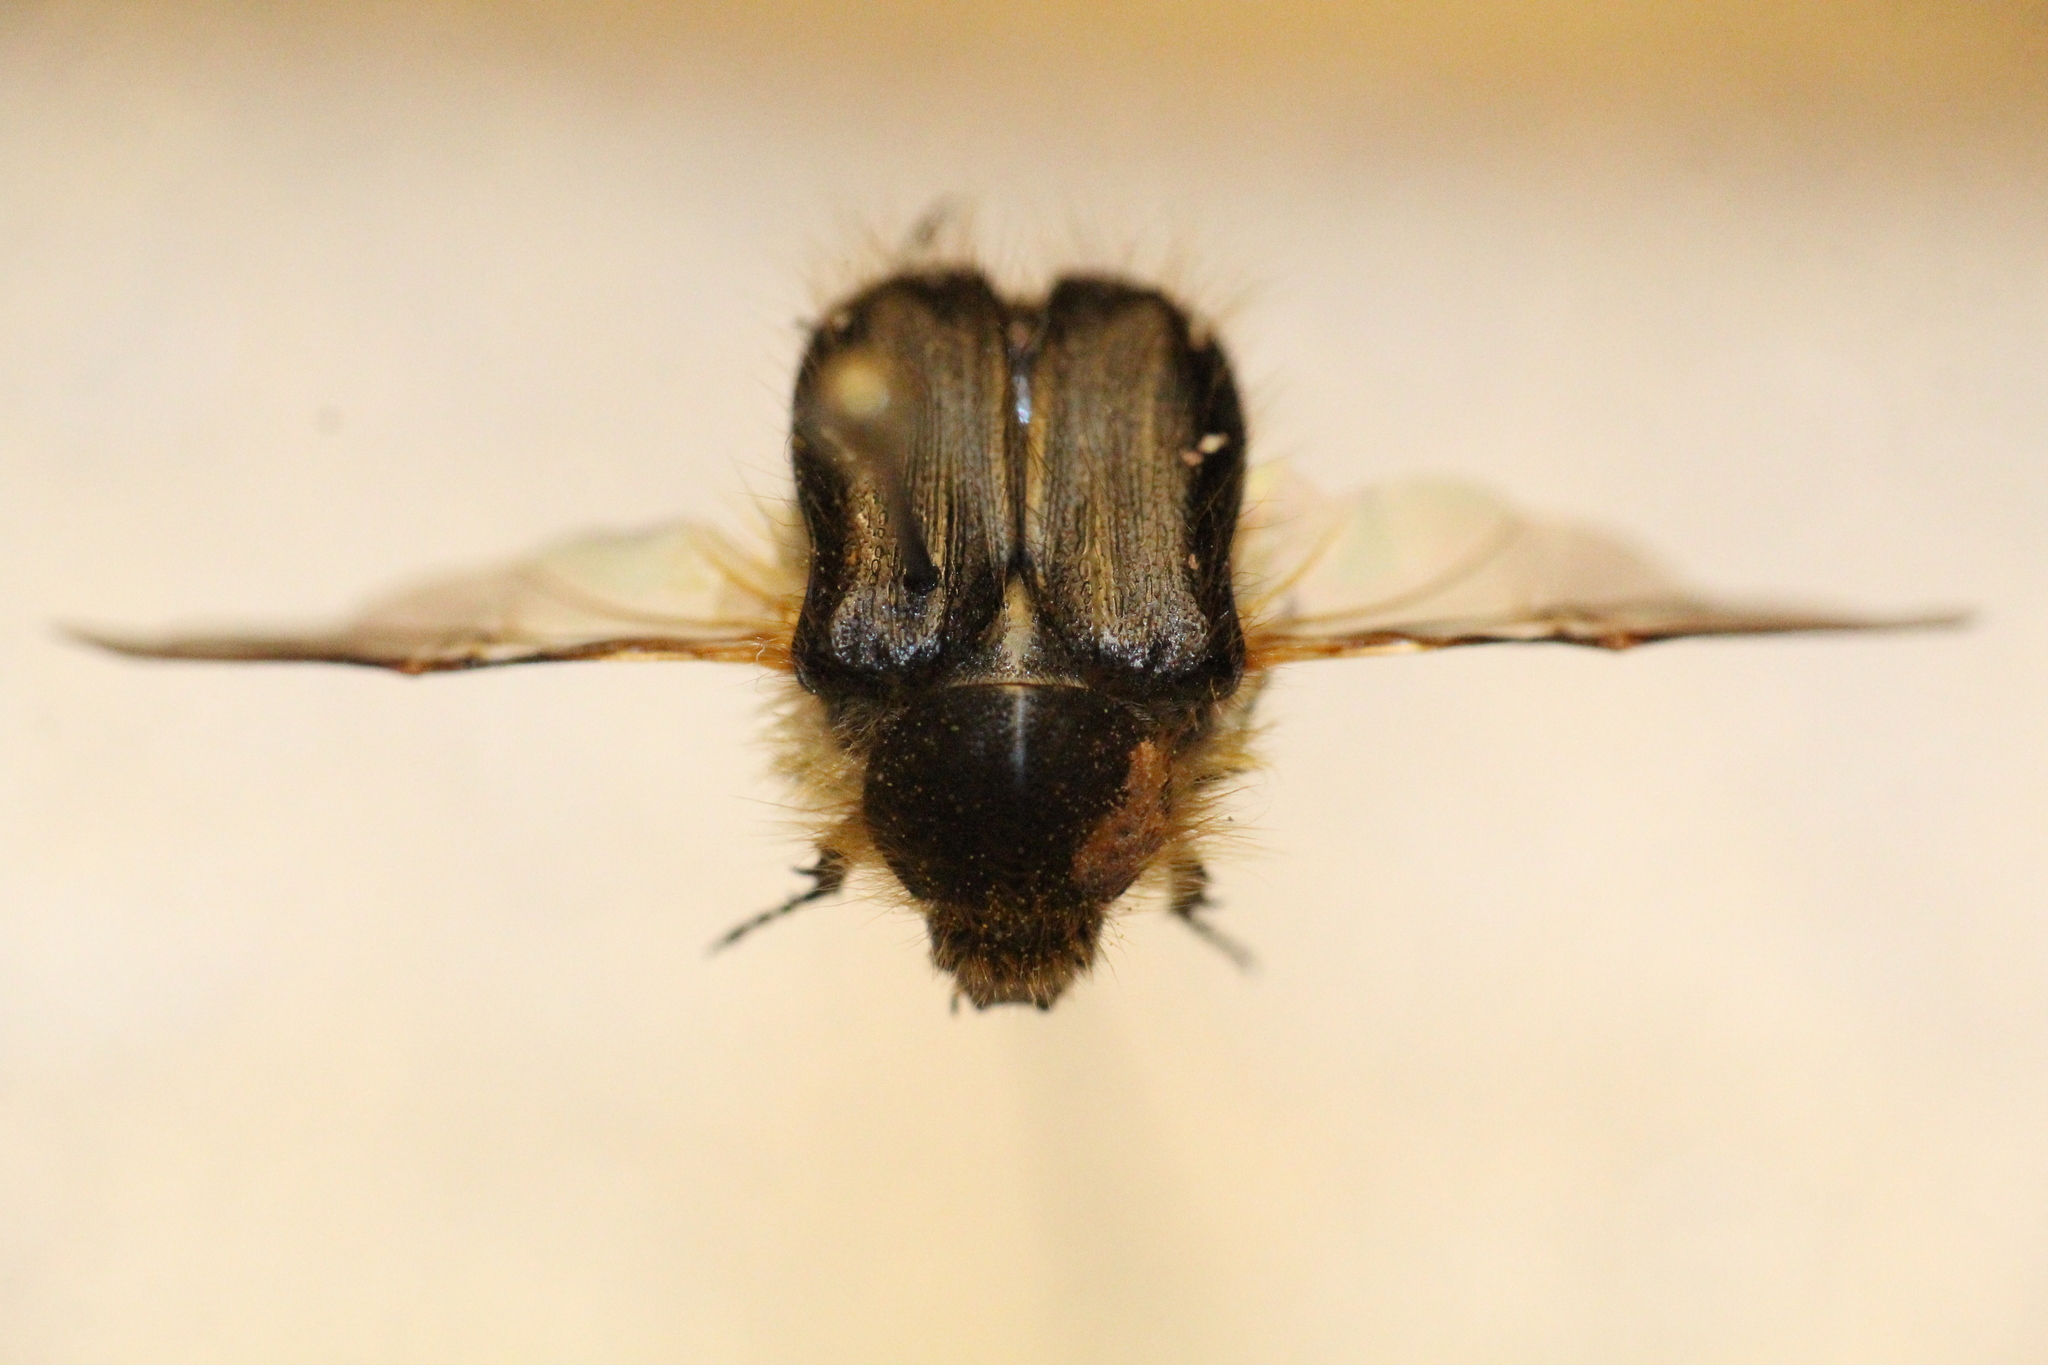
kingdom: Animalia
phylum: Arthropoda
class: Insecta
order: Coleoptera
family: Scarabaeidae
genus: Tropinota
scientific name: Tropinota hirta
